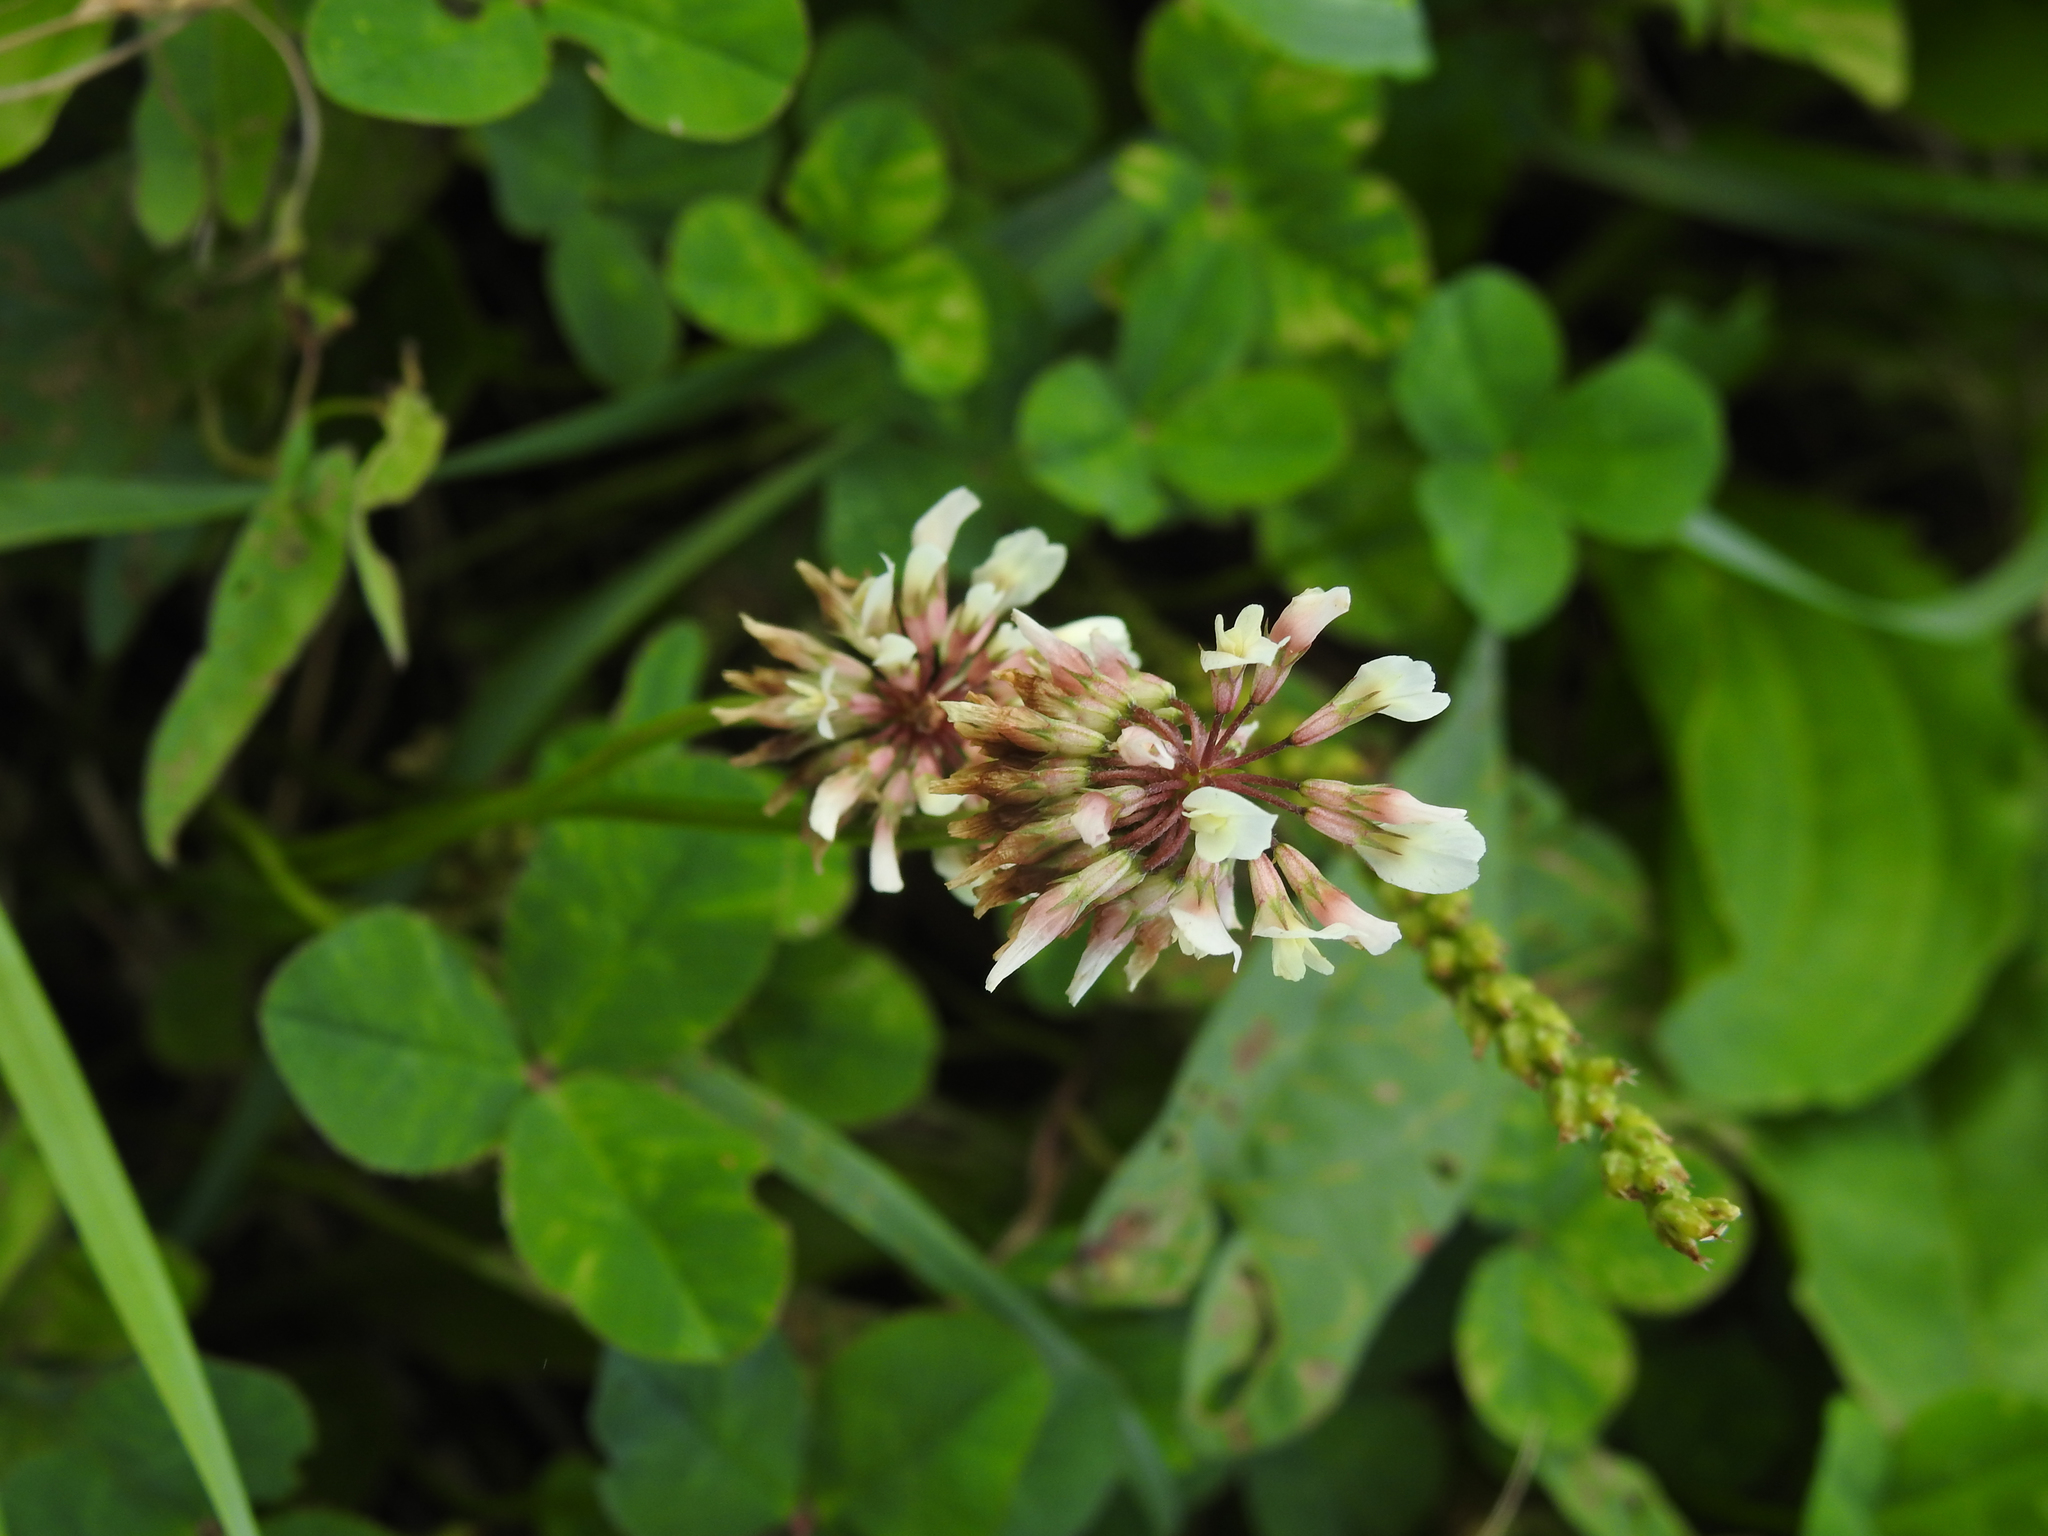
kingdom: Plantae
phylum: Tracheophyta
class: Magnoliopsida
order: Fabales
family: Fabaceae
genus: Trifolium
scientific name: Trifolium repens
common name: White clover
